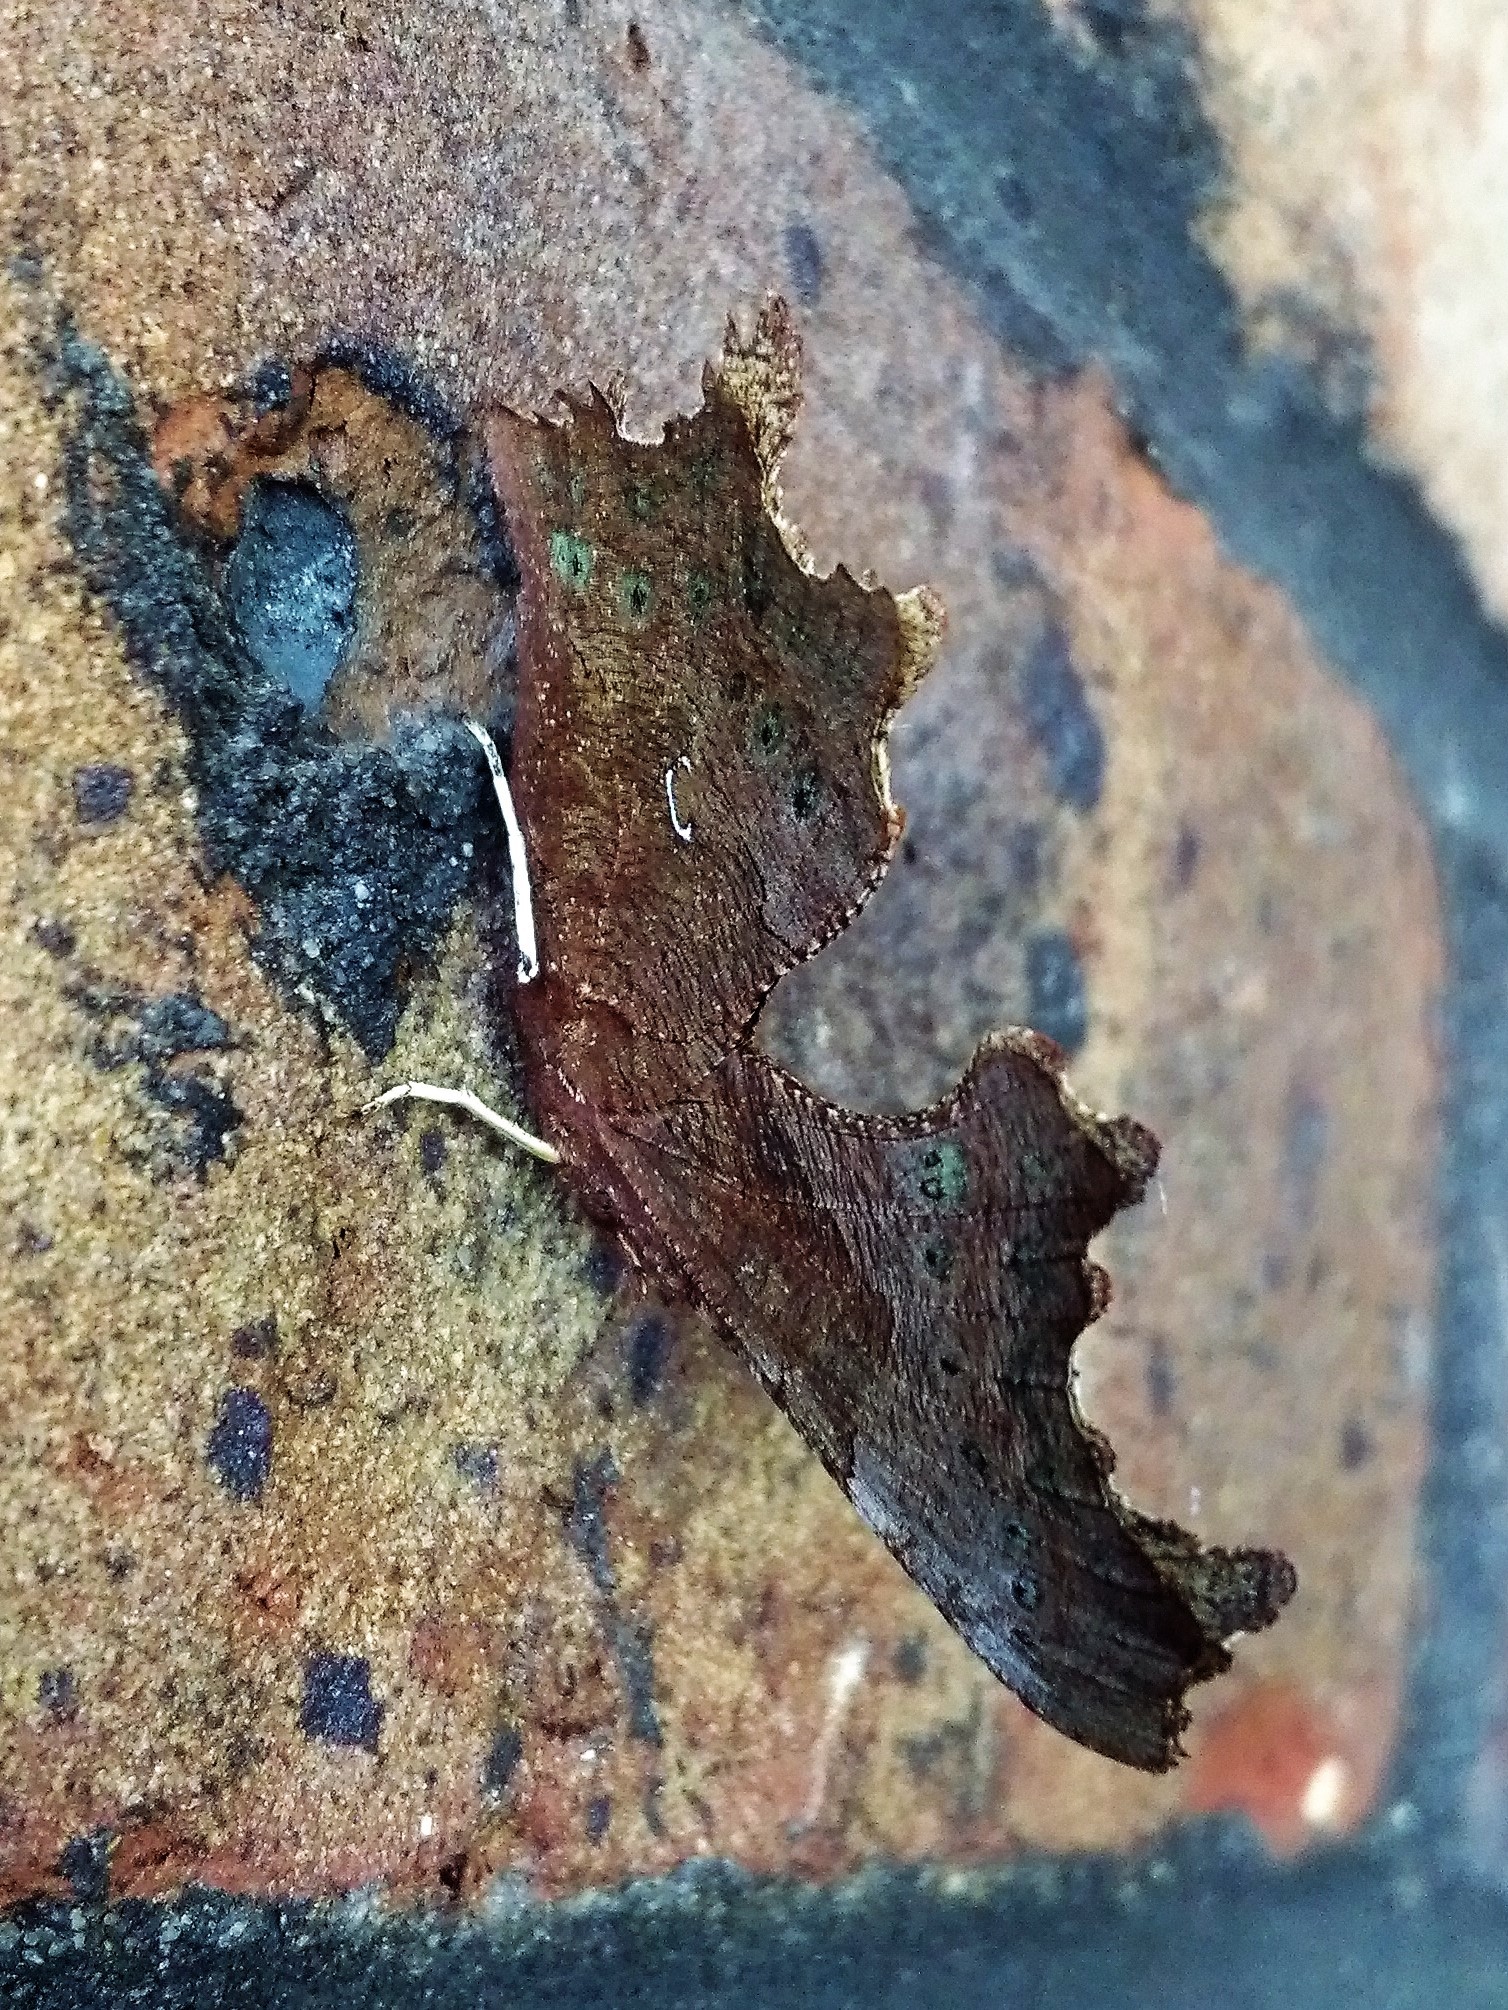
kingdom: Animalia
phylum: Arthropoda
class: Insecta
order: Lepidoptera
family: Nymphalidae
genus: Polygonia
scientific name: Polygonia c-album
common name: Comma
